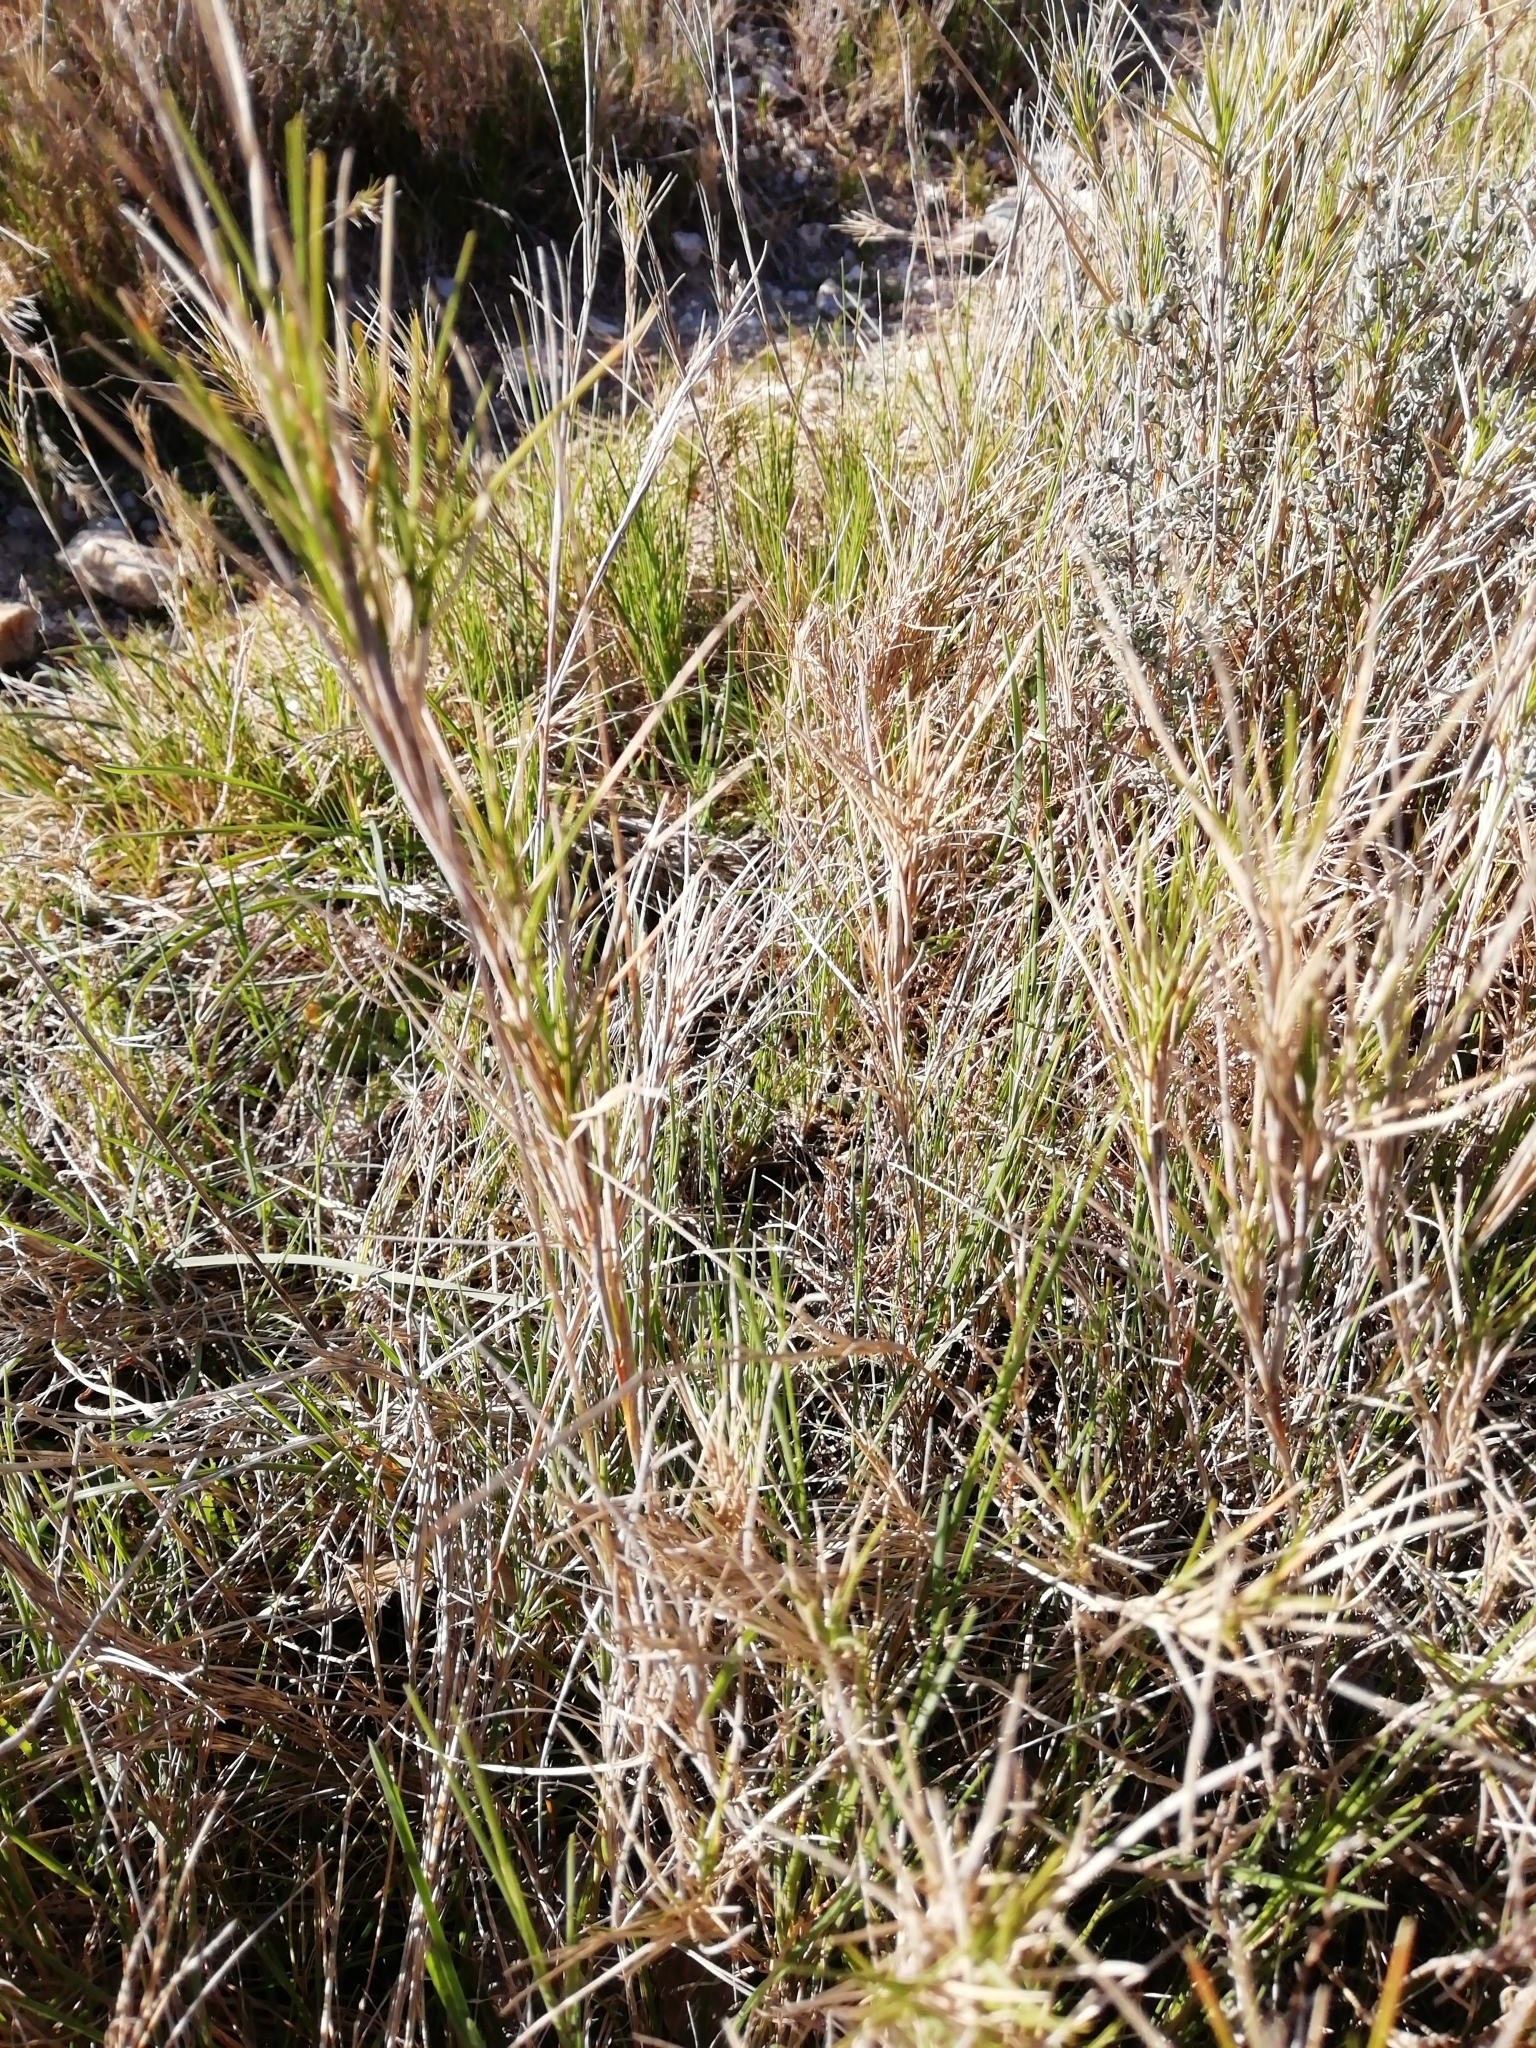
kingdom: Plantae
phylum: Tracheophyta
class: Liliopsida
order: Poales
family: Poaceae
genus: Brachypodium
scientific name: Brachypodium retusum
